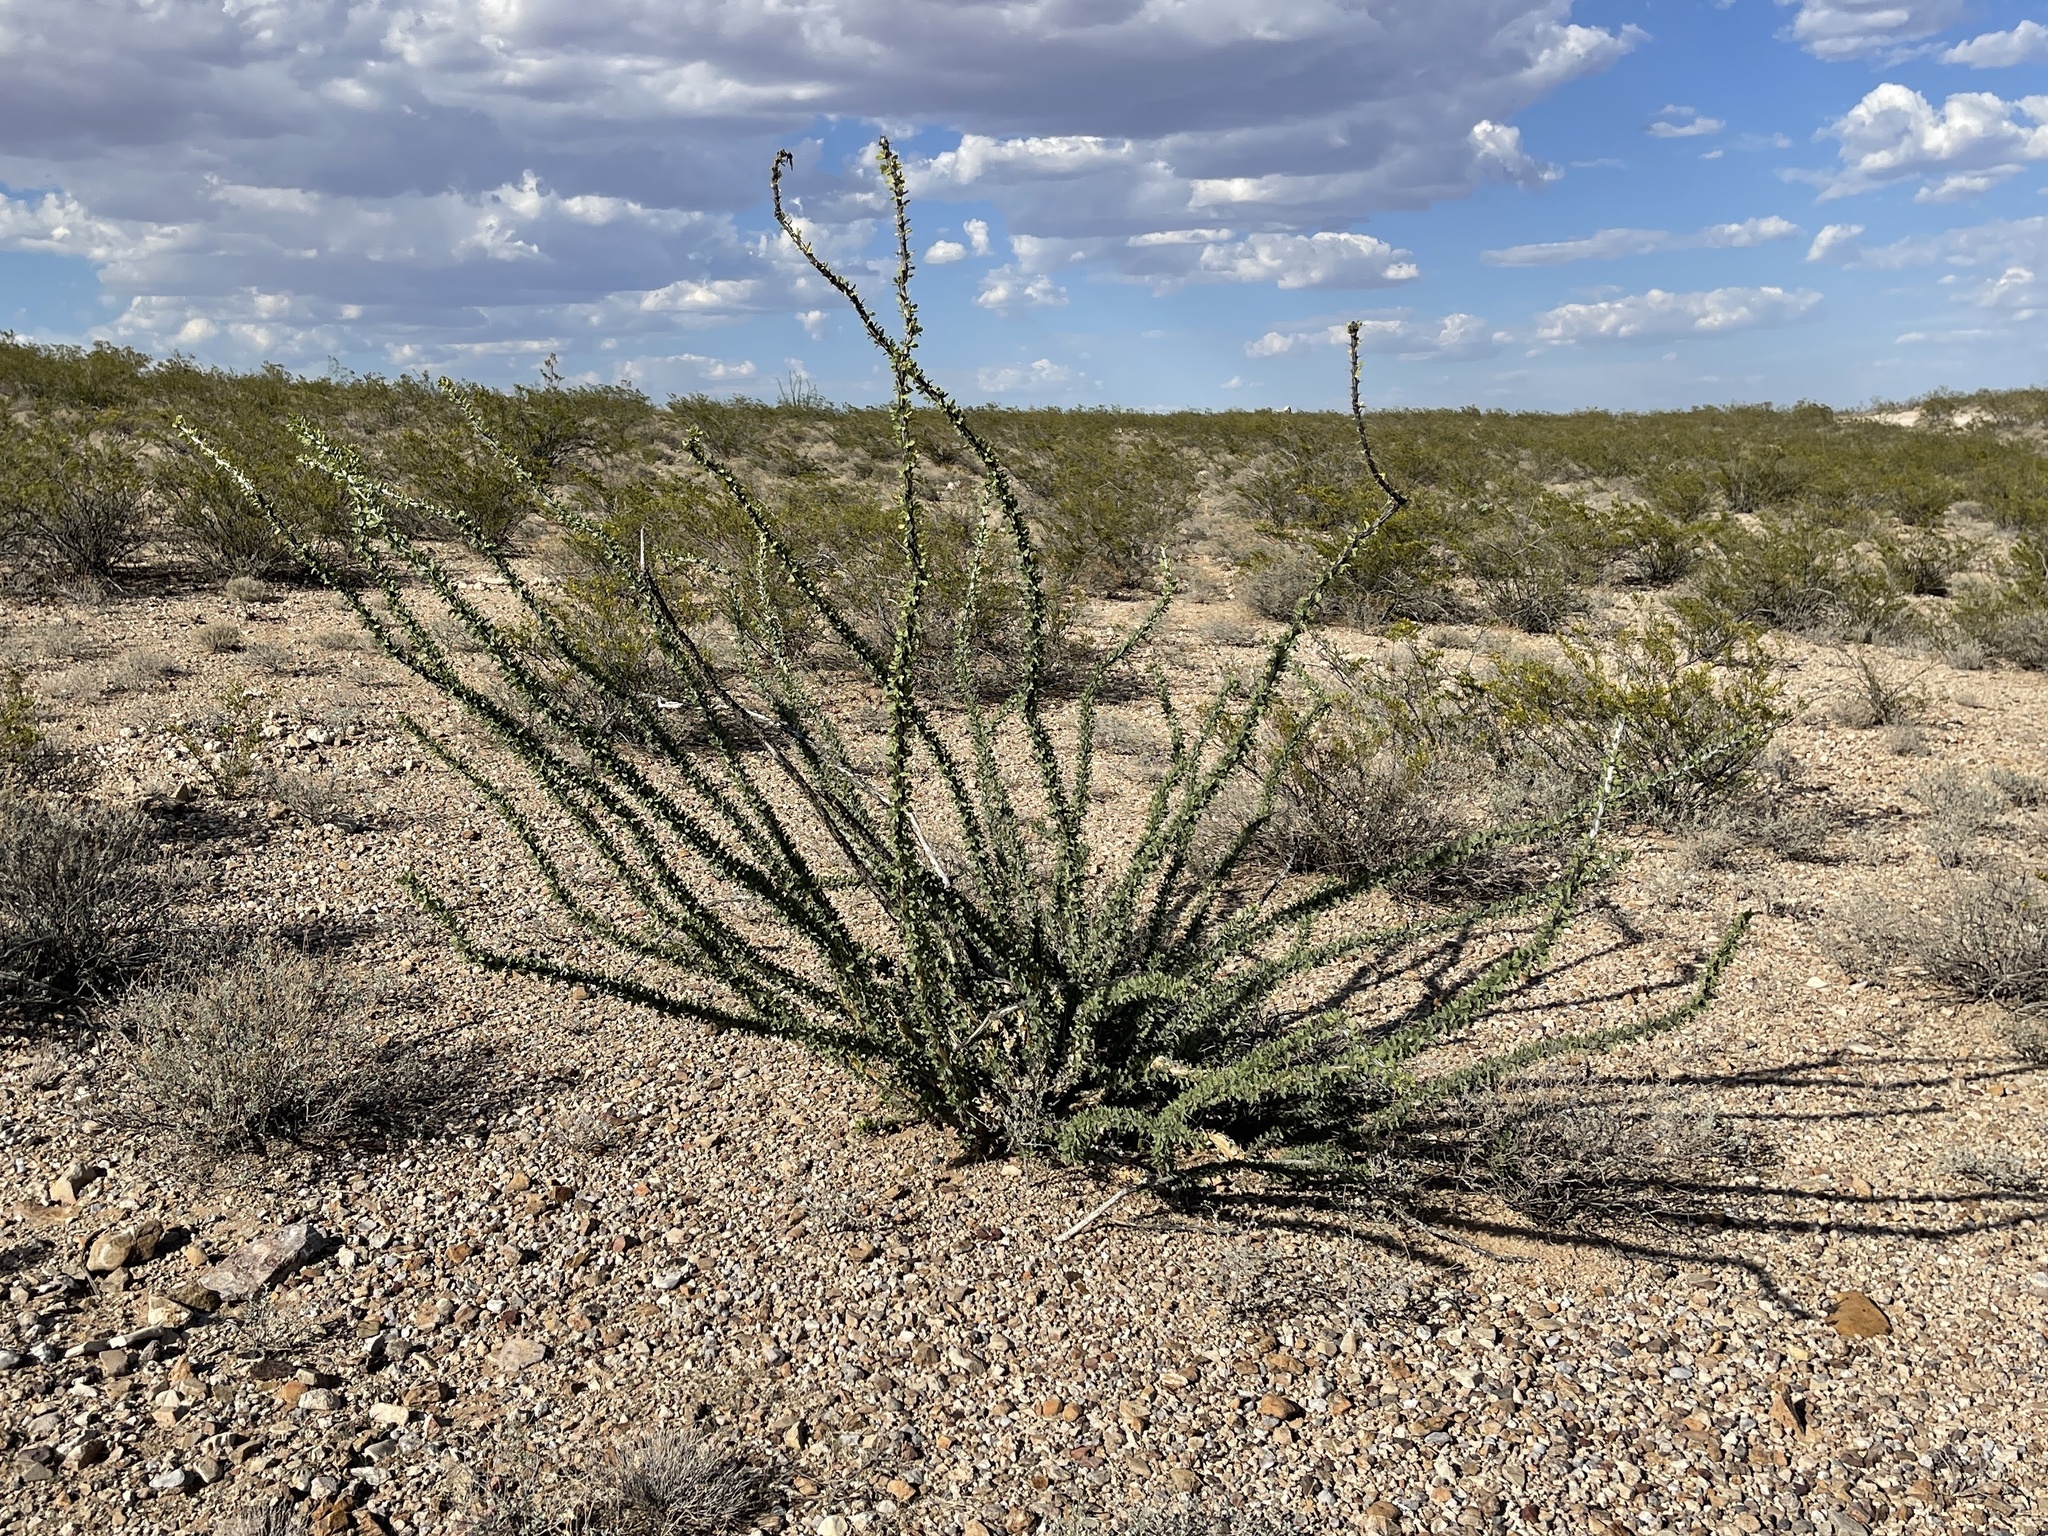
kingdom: Plantae
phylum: Tracheophyta
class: Magnoliopsida
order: Ericales
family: Fouquieriaceae
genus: Fouquieria
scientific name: Fouquieria splendens
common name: Vine-cactus
